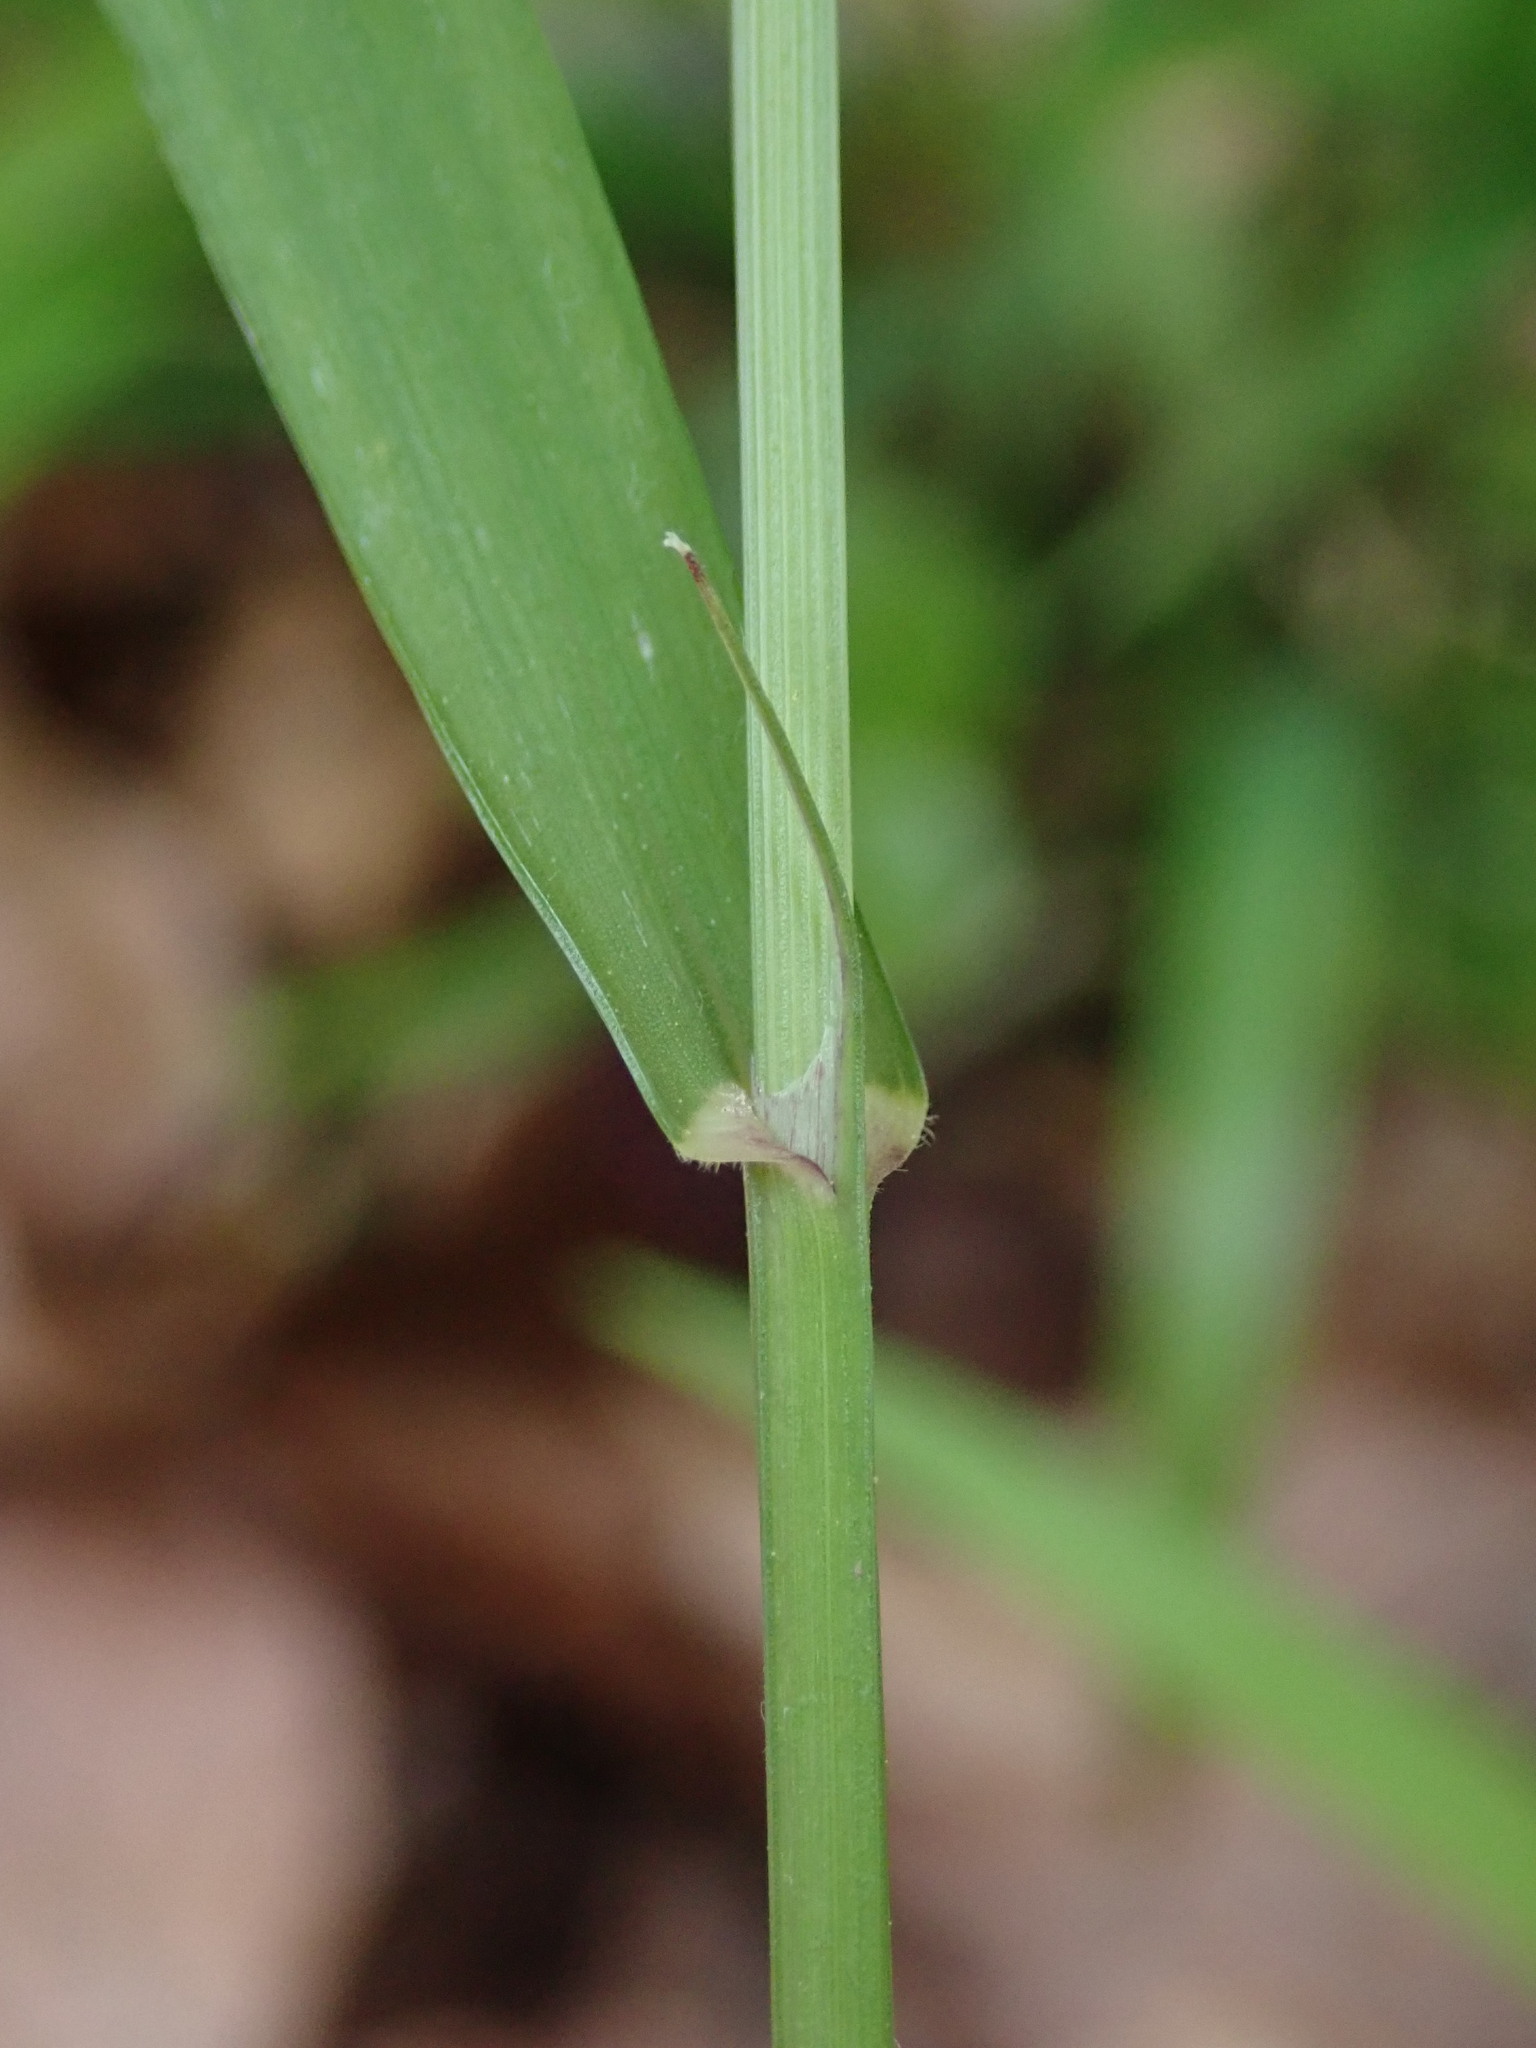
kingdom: Plantae
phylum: Tracheophyta
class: Liliopsida
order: Poales
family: Poaceae
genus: Melica
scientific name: Melica uniflora
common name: Wood melick
